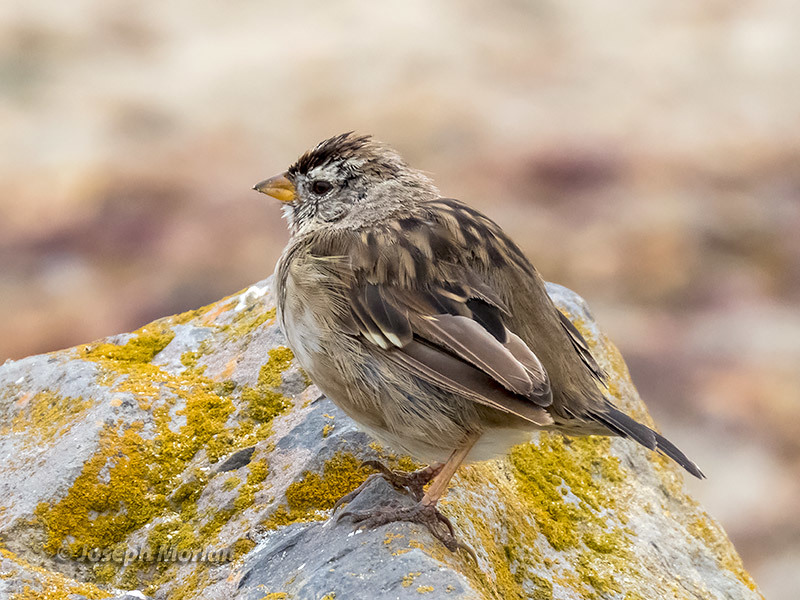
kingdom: Animalia
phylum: Chordata
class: Aves
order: Passeriformes
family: Passerellidae
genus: Zonotrichia
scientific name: Zonotrichia leucophrys
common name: White-crowned sparrow
